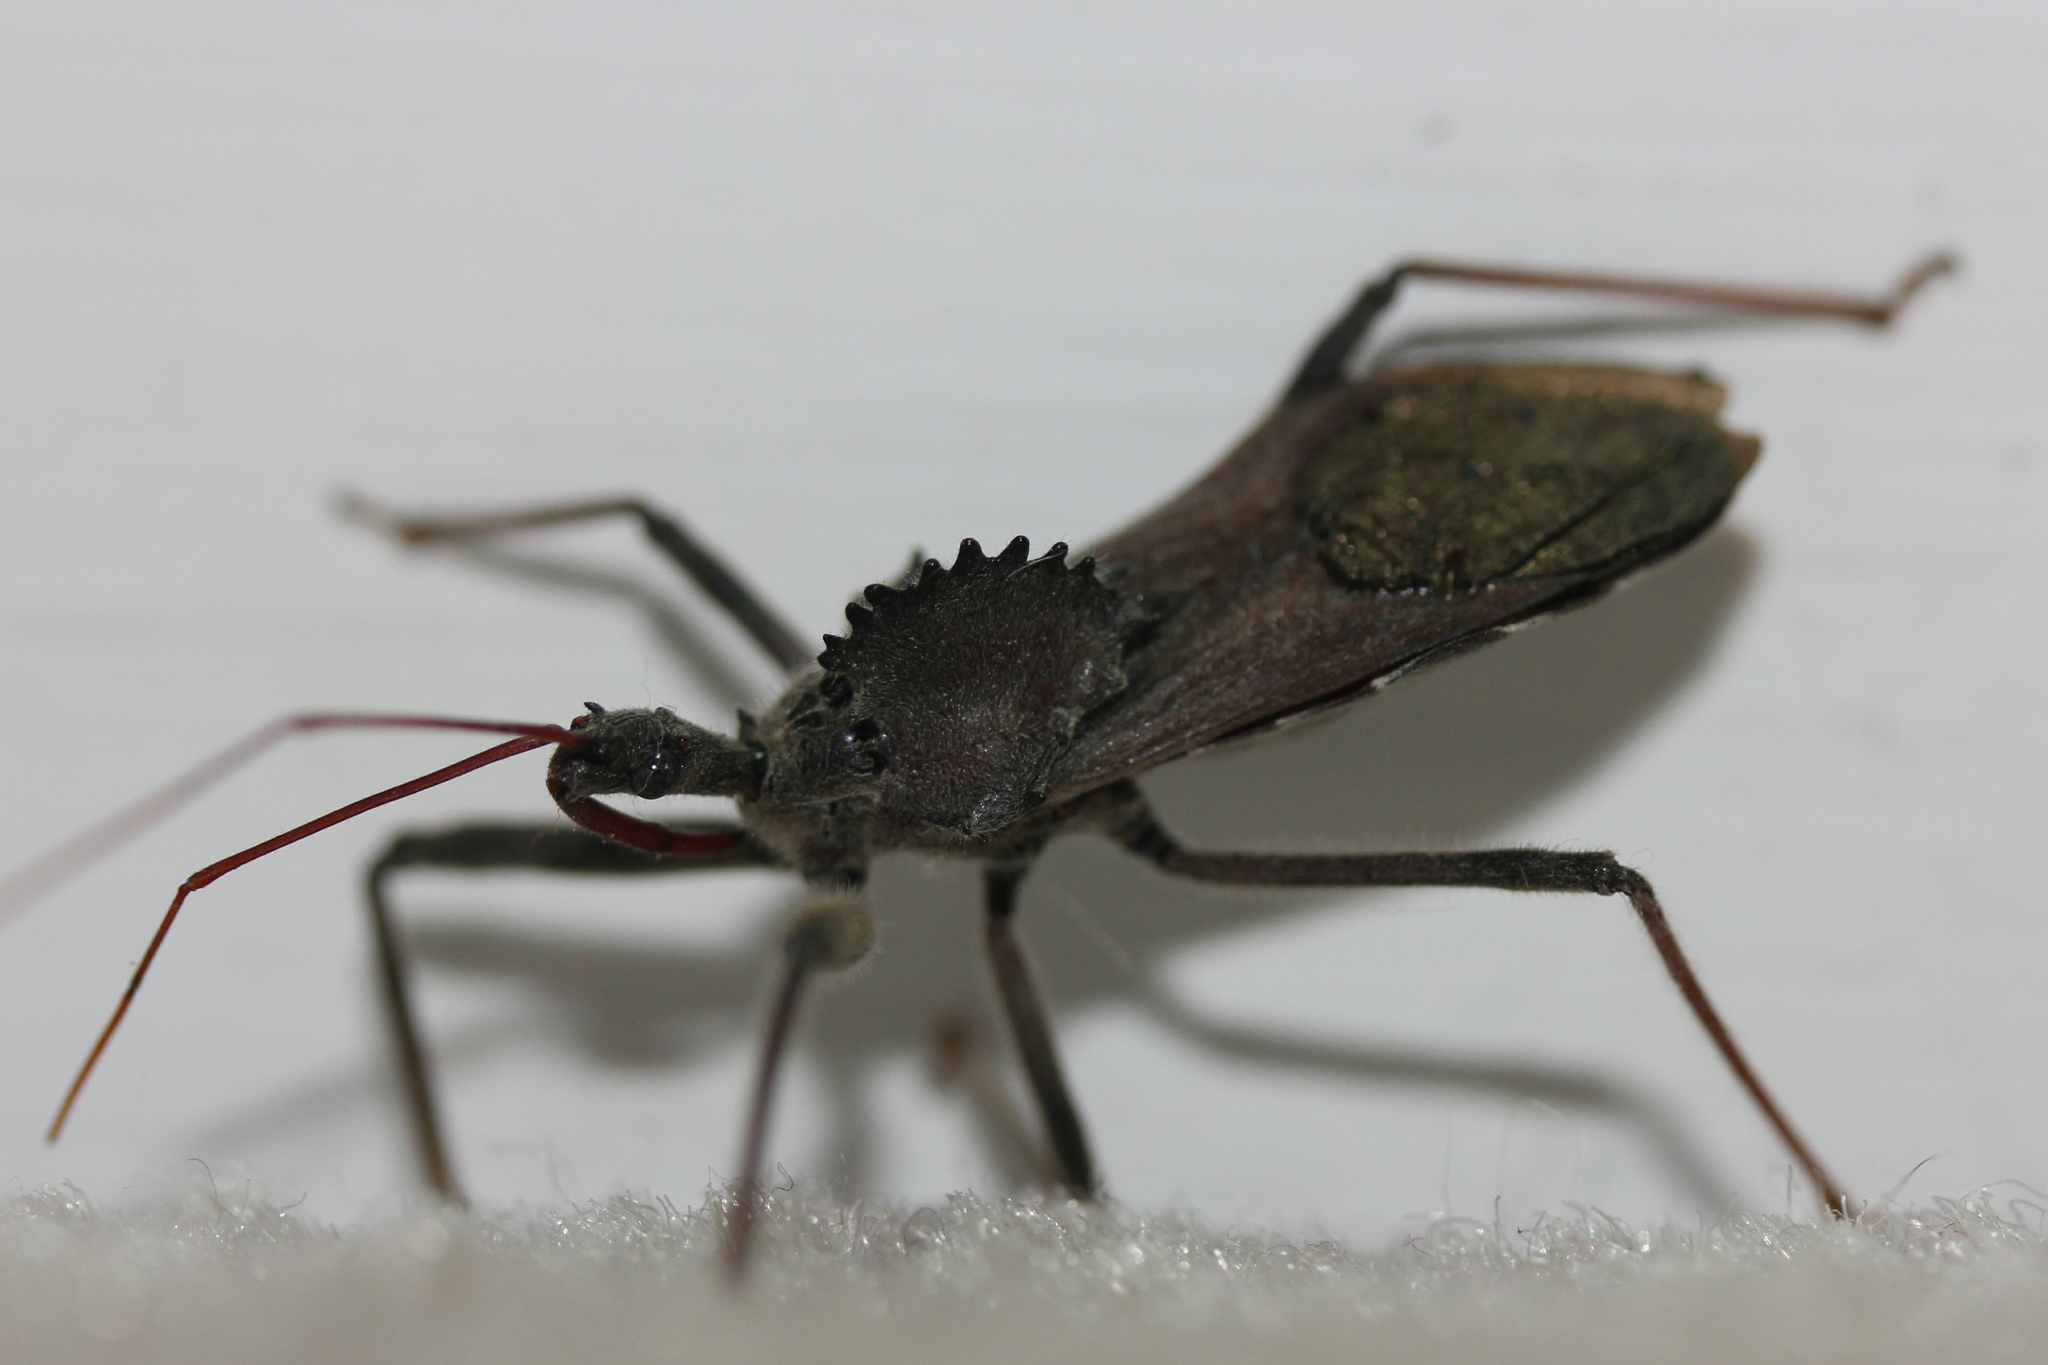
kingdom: Animalia
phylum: Arthropoda
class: Insecta
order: Hemiptera
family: Reduviidae
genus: Arilus
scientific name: Arilus cristatus
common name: North american wheel bug
